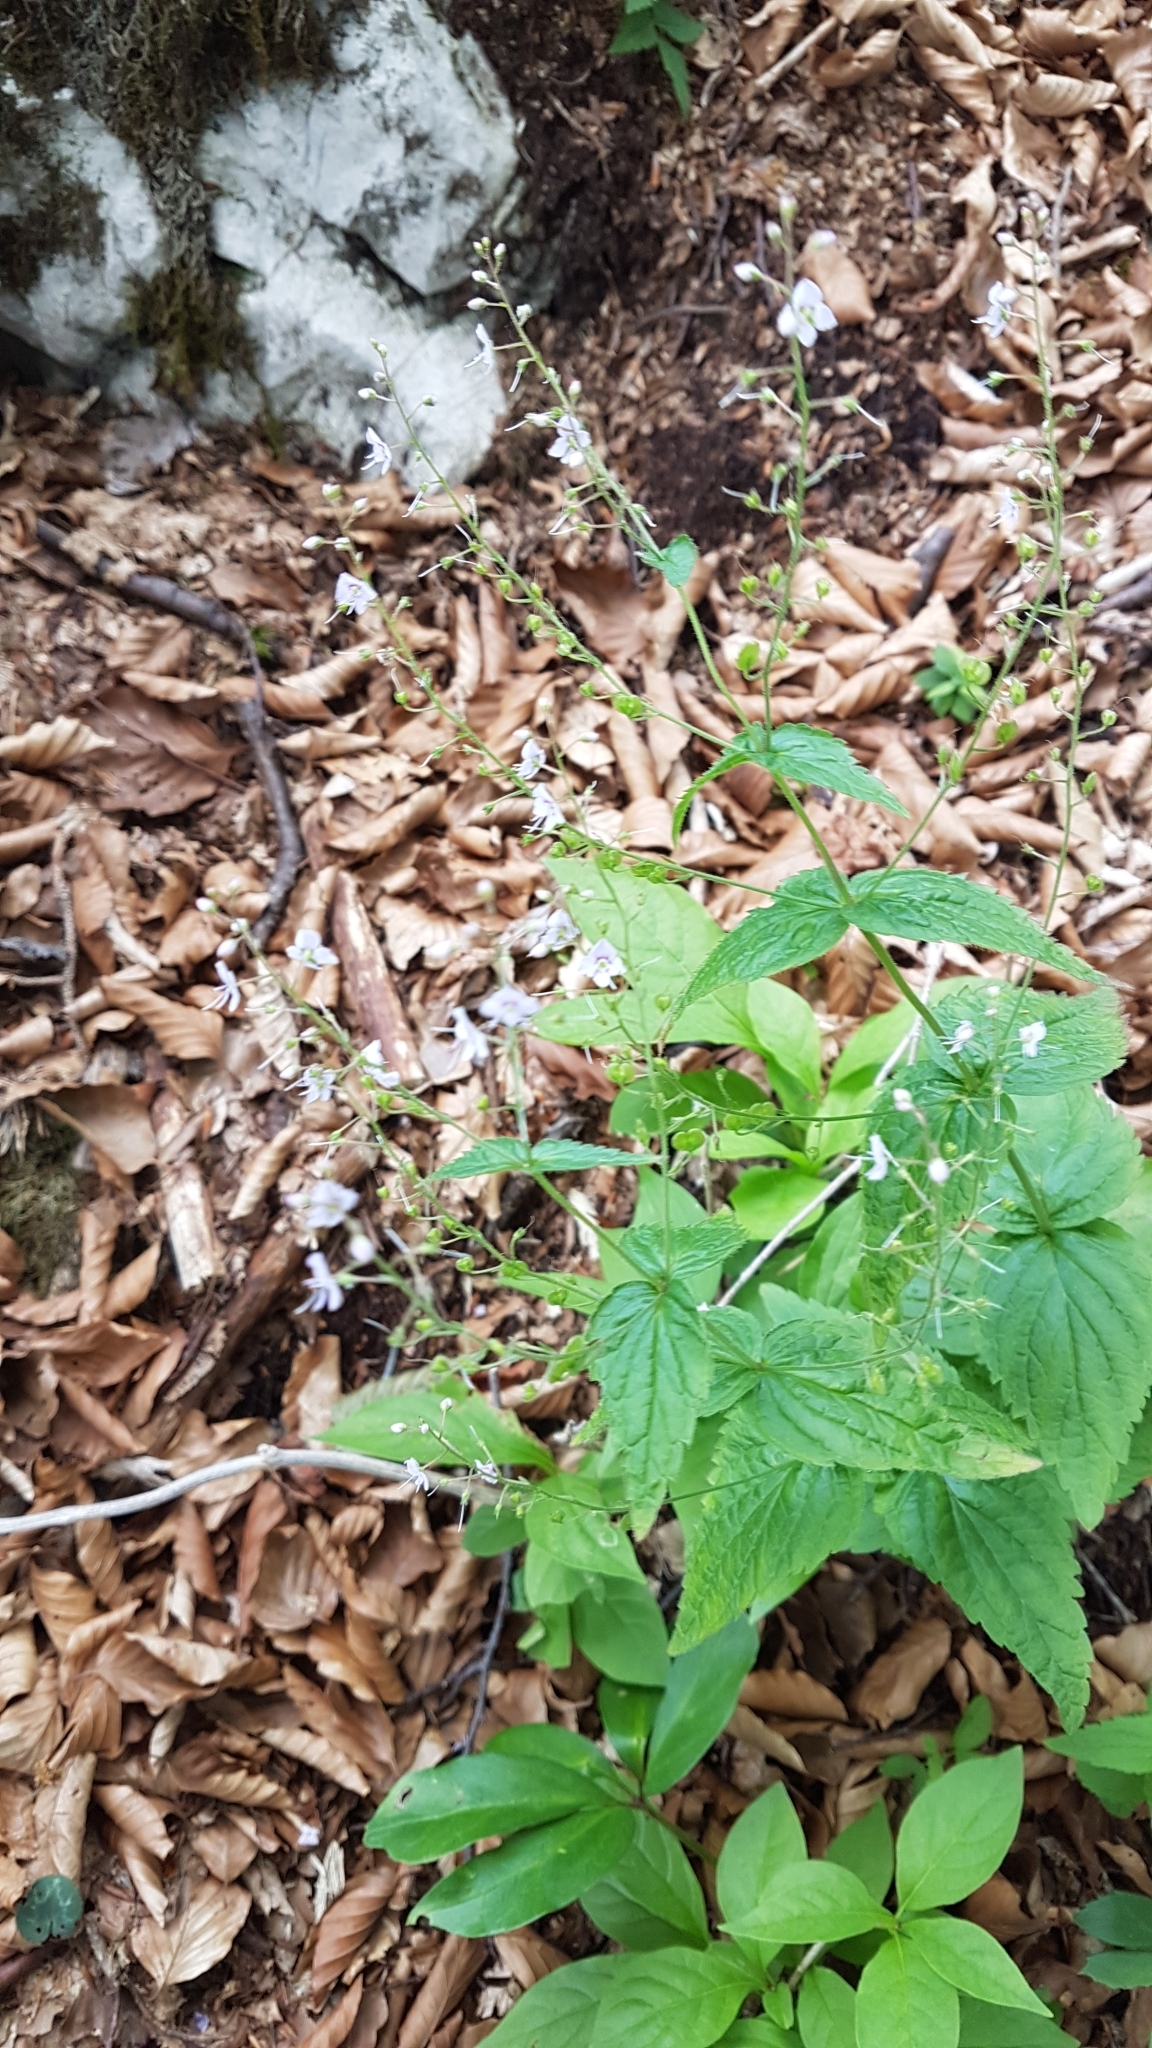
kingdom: Plantae
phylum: Tracheophyta
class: Magnoliopsida
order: Lamiales
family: Plantaginaceae
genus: Veronica
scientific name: Veronica urticifolia
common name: Nettle-leaf speedwell
